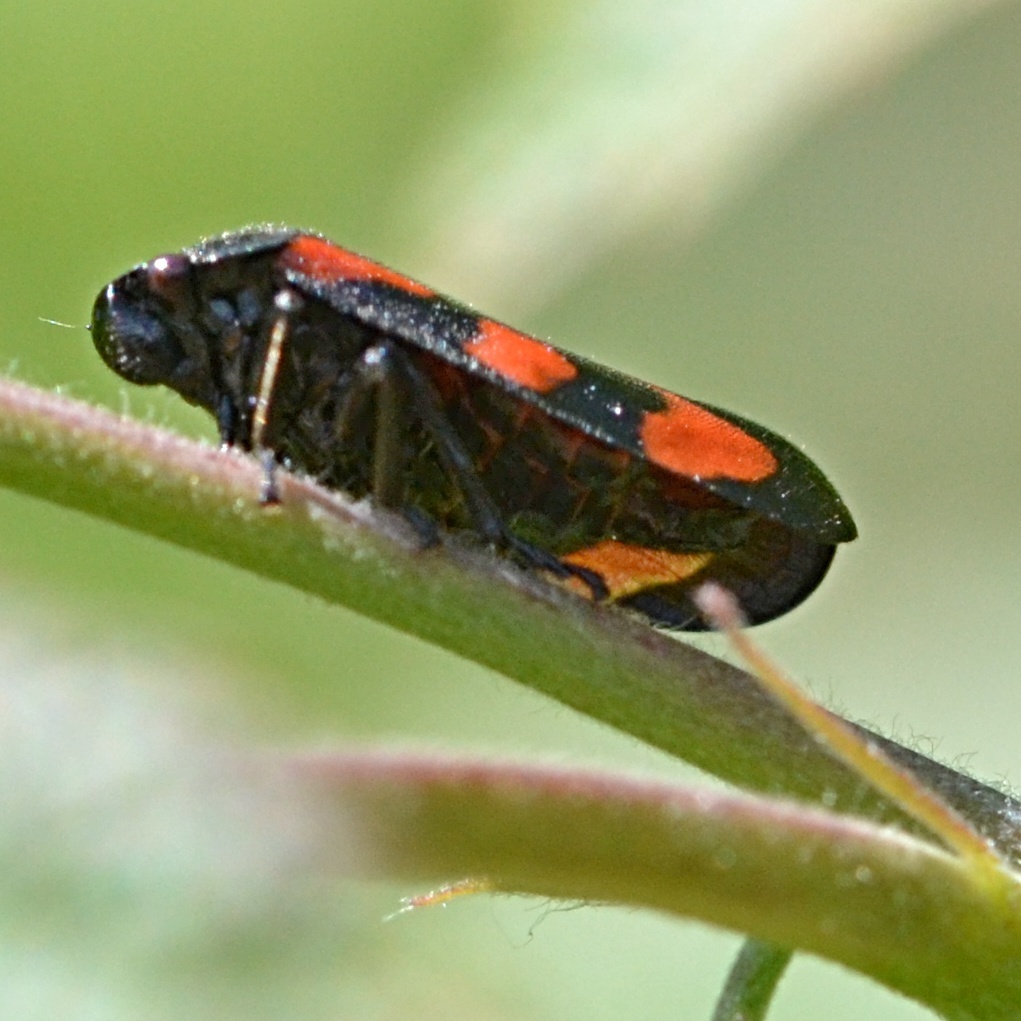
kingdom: Animalia
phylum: Arthropoda
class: Insecta
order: Hemiptera
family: Cercopidae
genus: Cercopis
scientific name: Cercopis vulnerata
